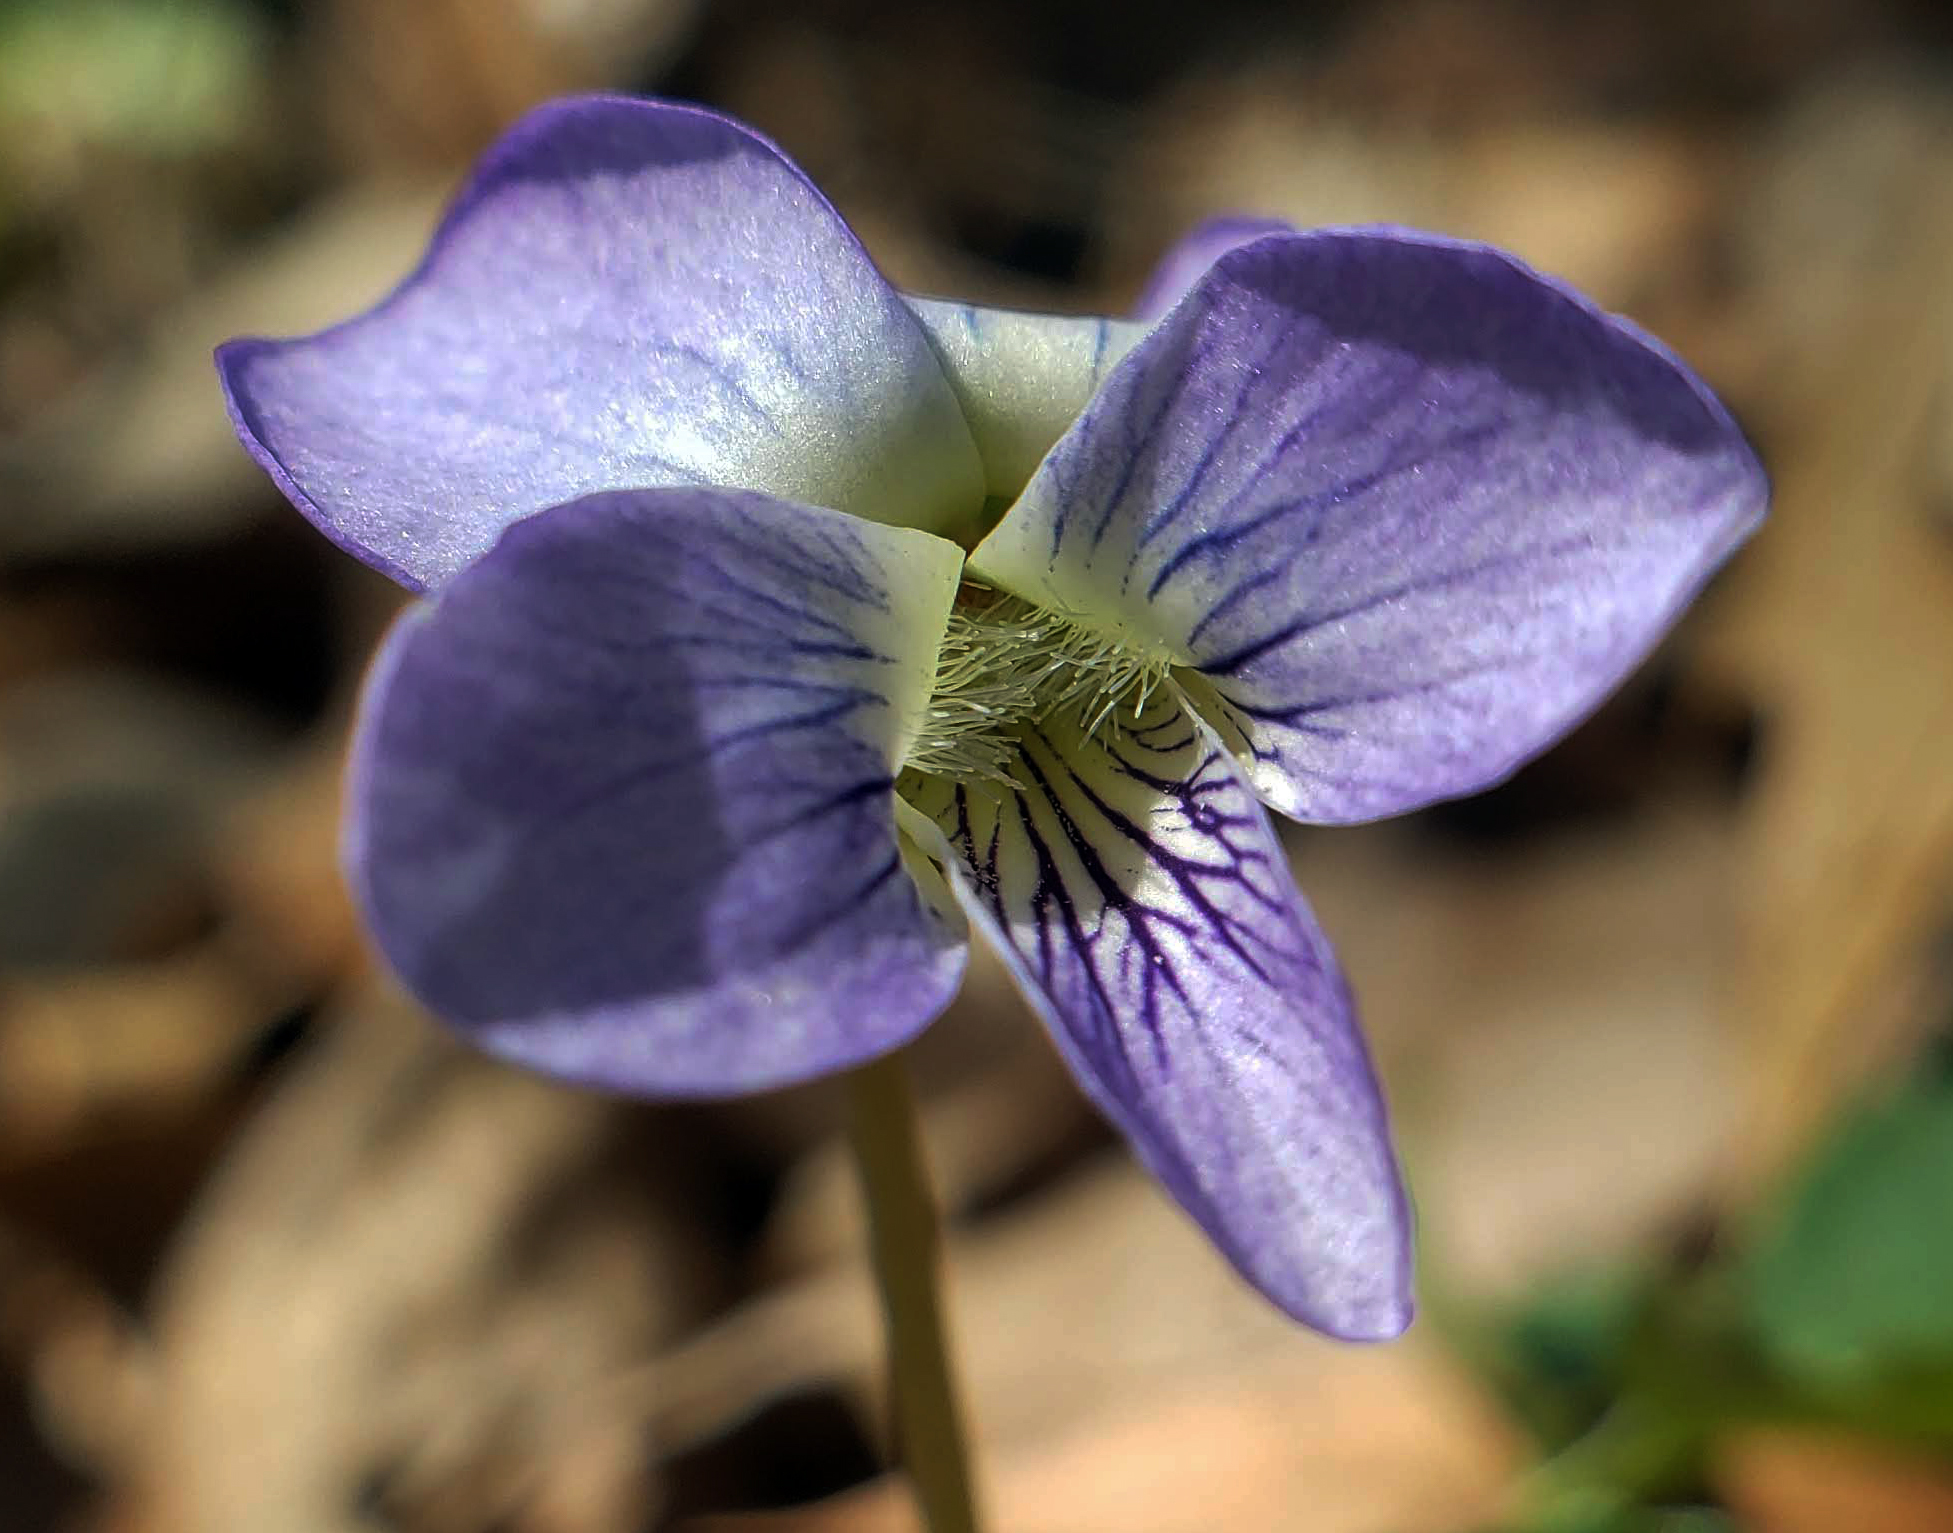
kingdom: Plantae
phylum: Tracheophyta
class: Magnoliopsida
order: Malpighiales
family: Violaceae
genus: Viola
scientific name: Viola sororia
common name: Dooryard violet
